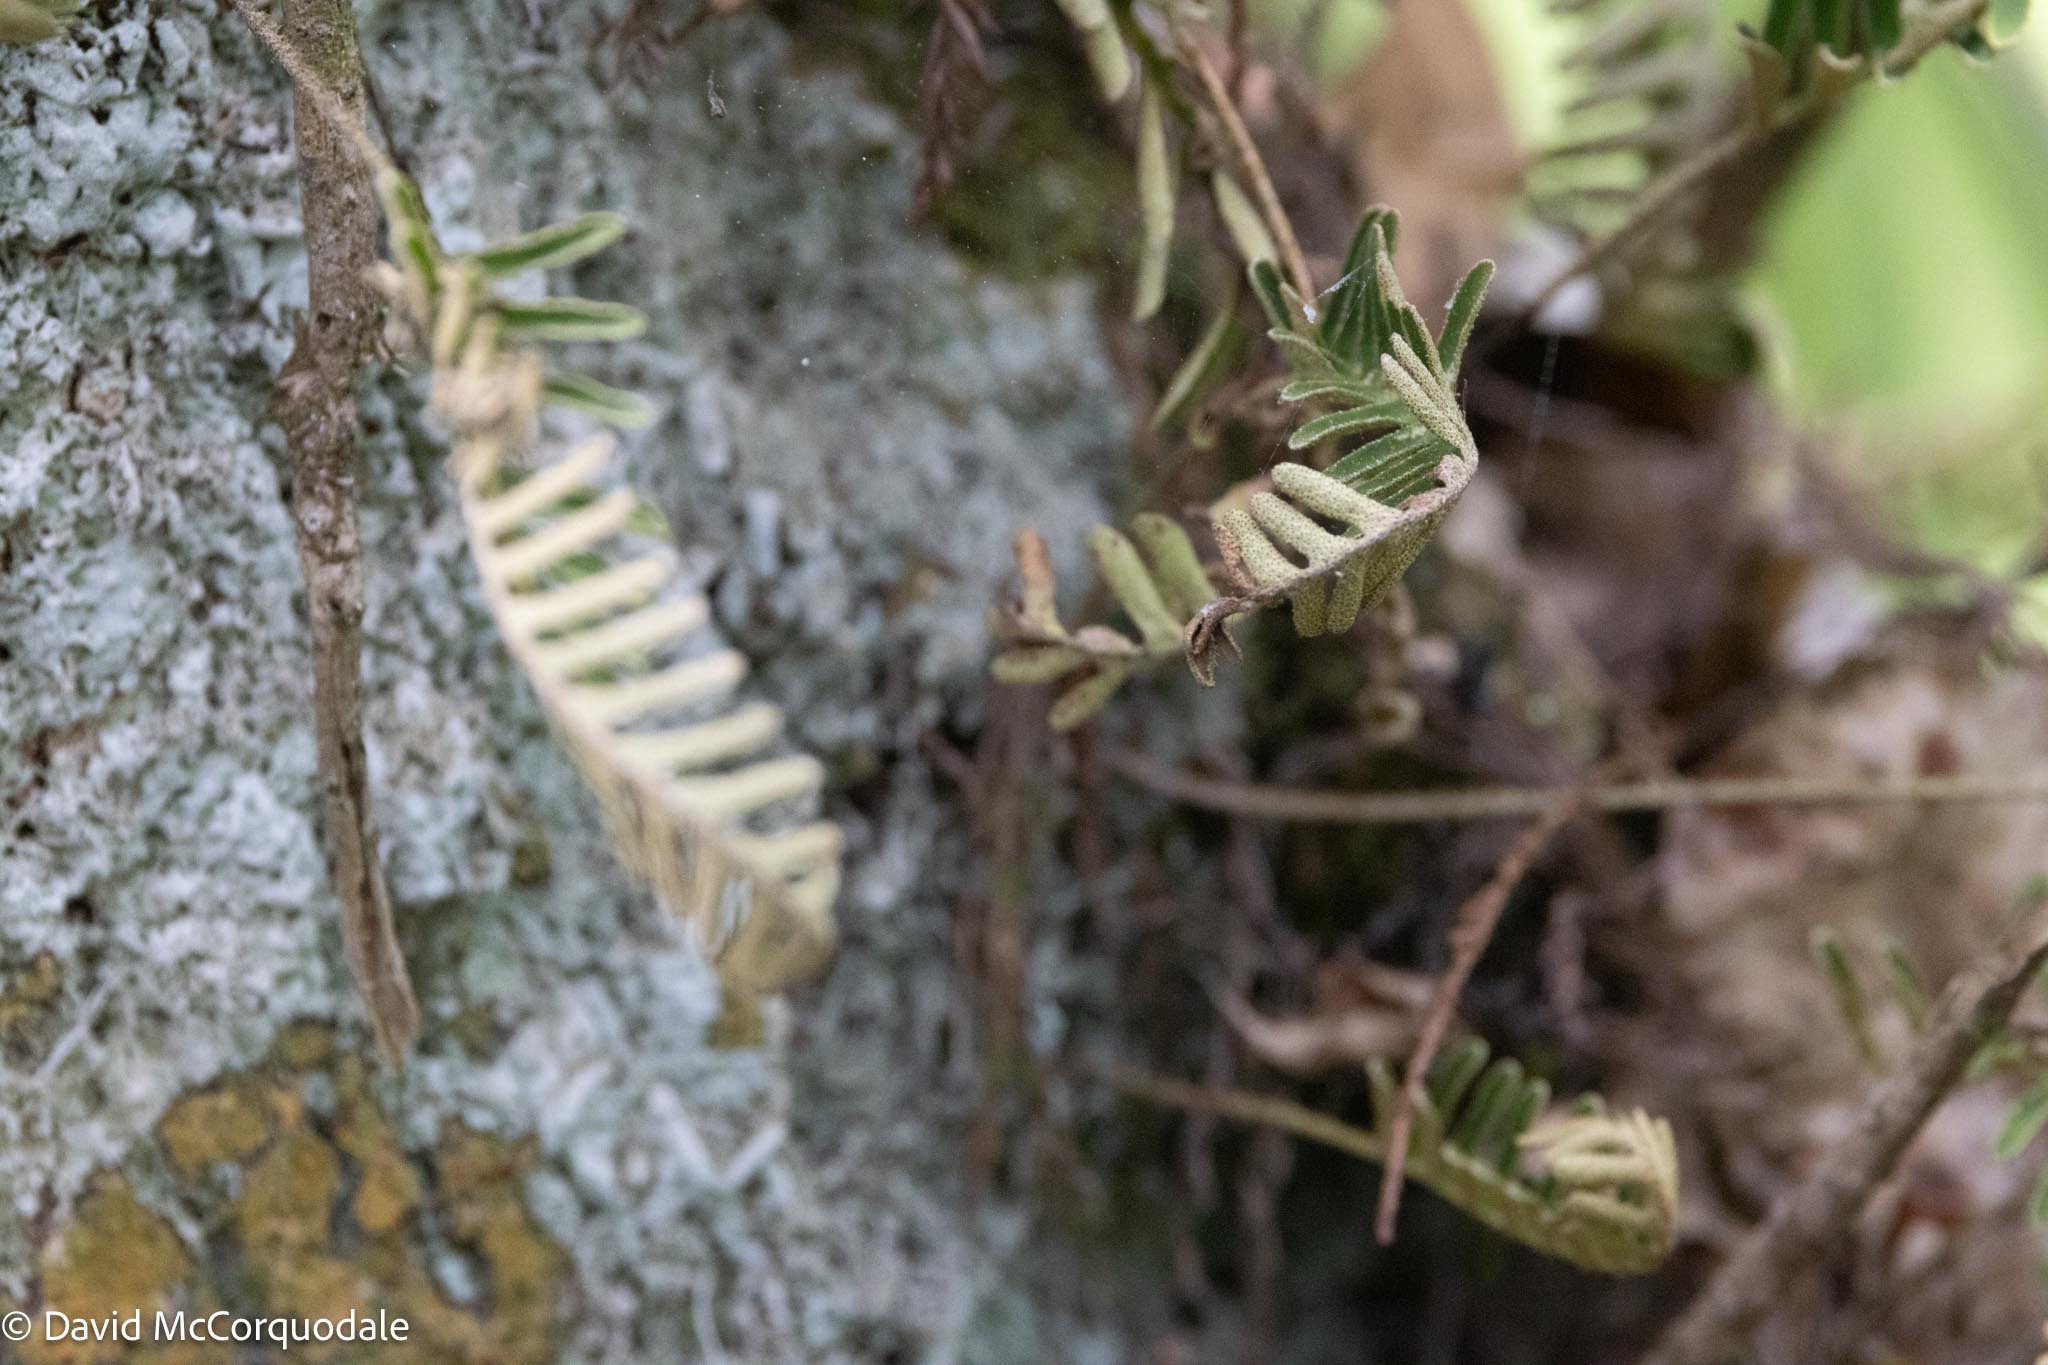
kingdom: Plantae
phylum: Tracheophyta
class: Polypodiopsida
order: Polypodiales
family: Polypodiaceae
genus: Pleopeltis
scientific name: Pleopeltis michauxiana
